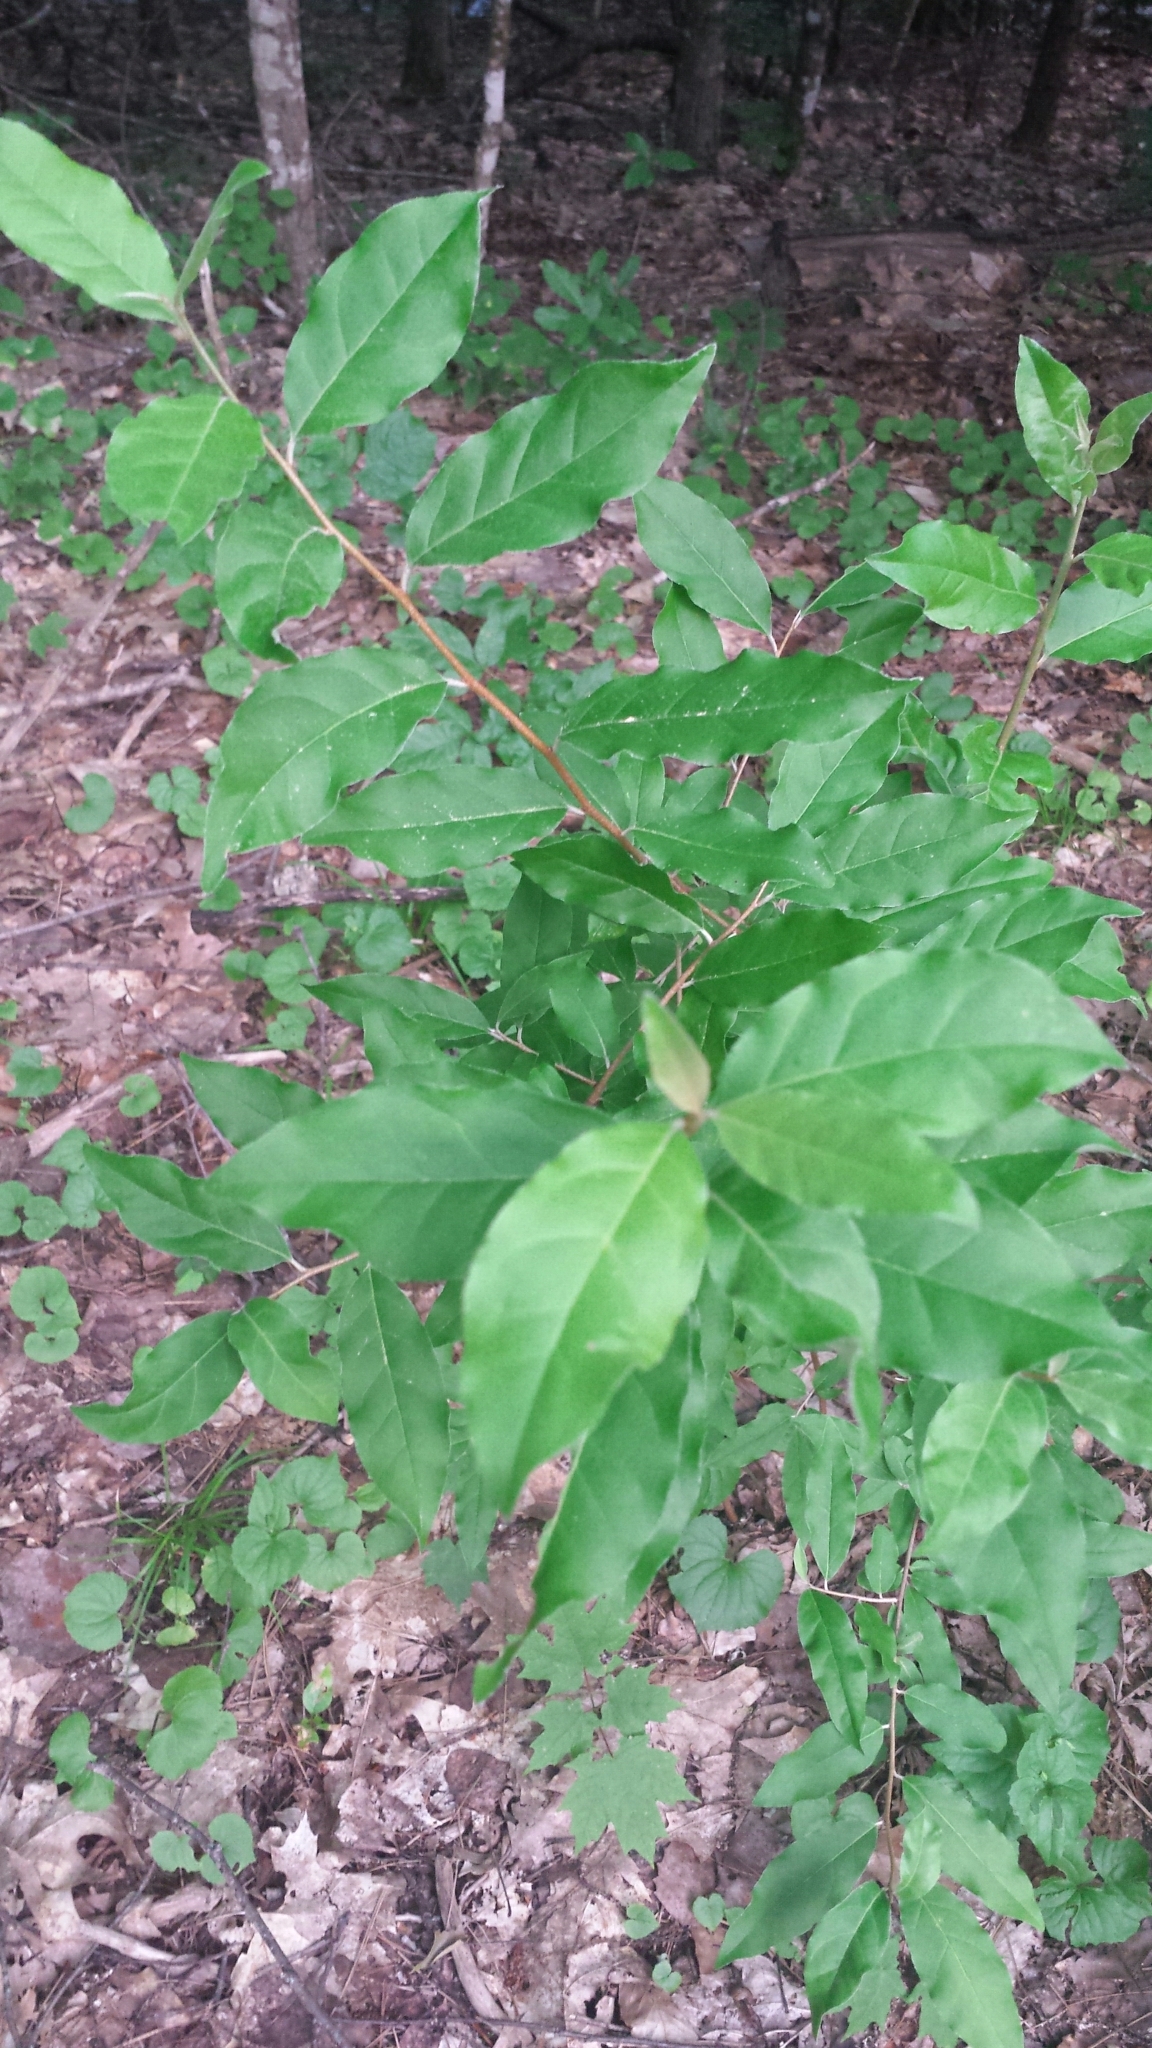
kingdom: Plantae
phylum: Tracheophyta
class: Magnoliopsida
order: Rosales
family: Elaeagnaceae
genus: Elaeagnus
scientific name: Elaeagnus umbellata
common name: Autumn olive
